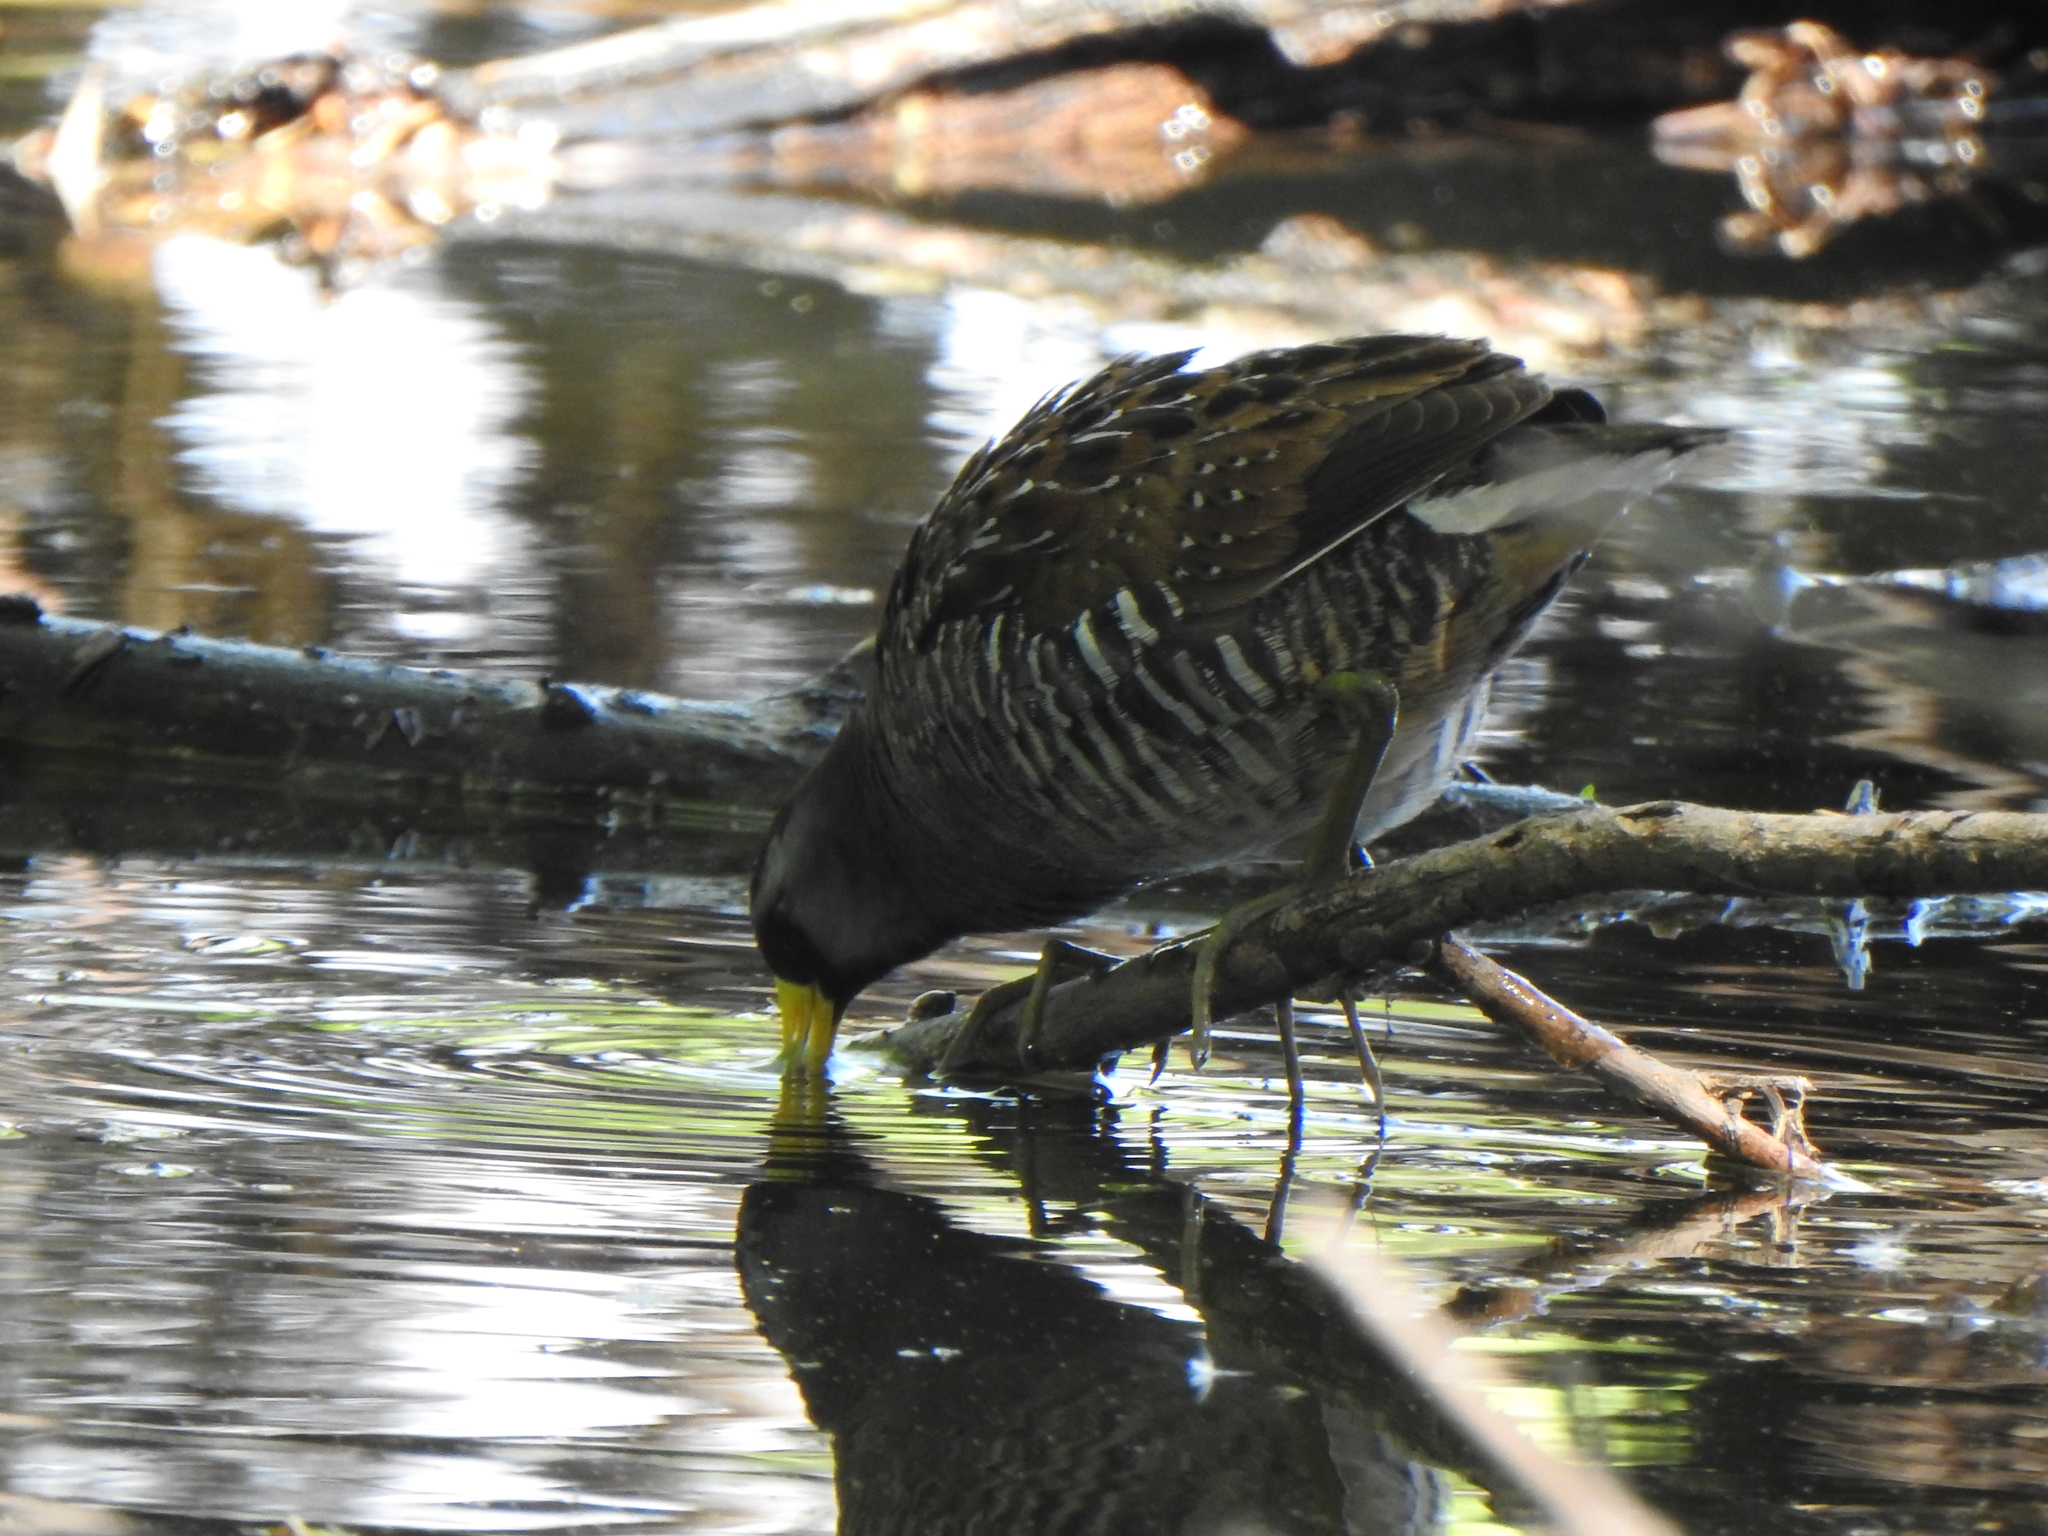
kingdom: Animalia
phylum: Chordata
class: Aves
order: Gruiformes
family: Rallidae
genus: Porzana
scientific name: Porzana carolina
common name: Sora
